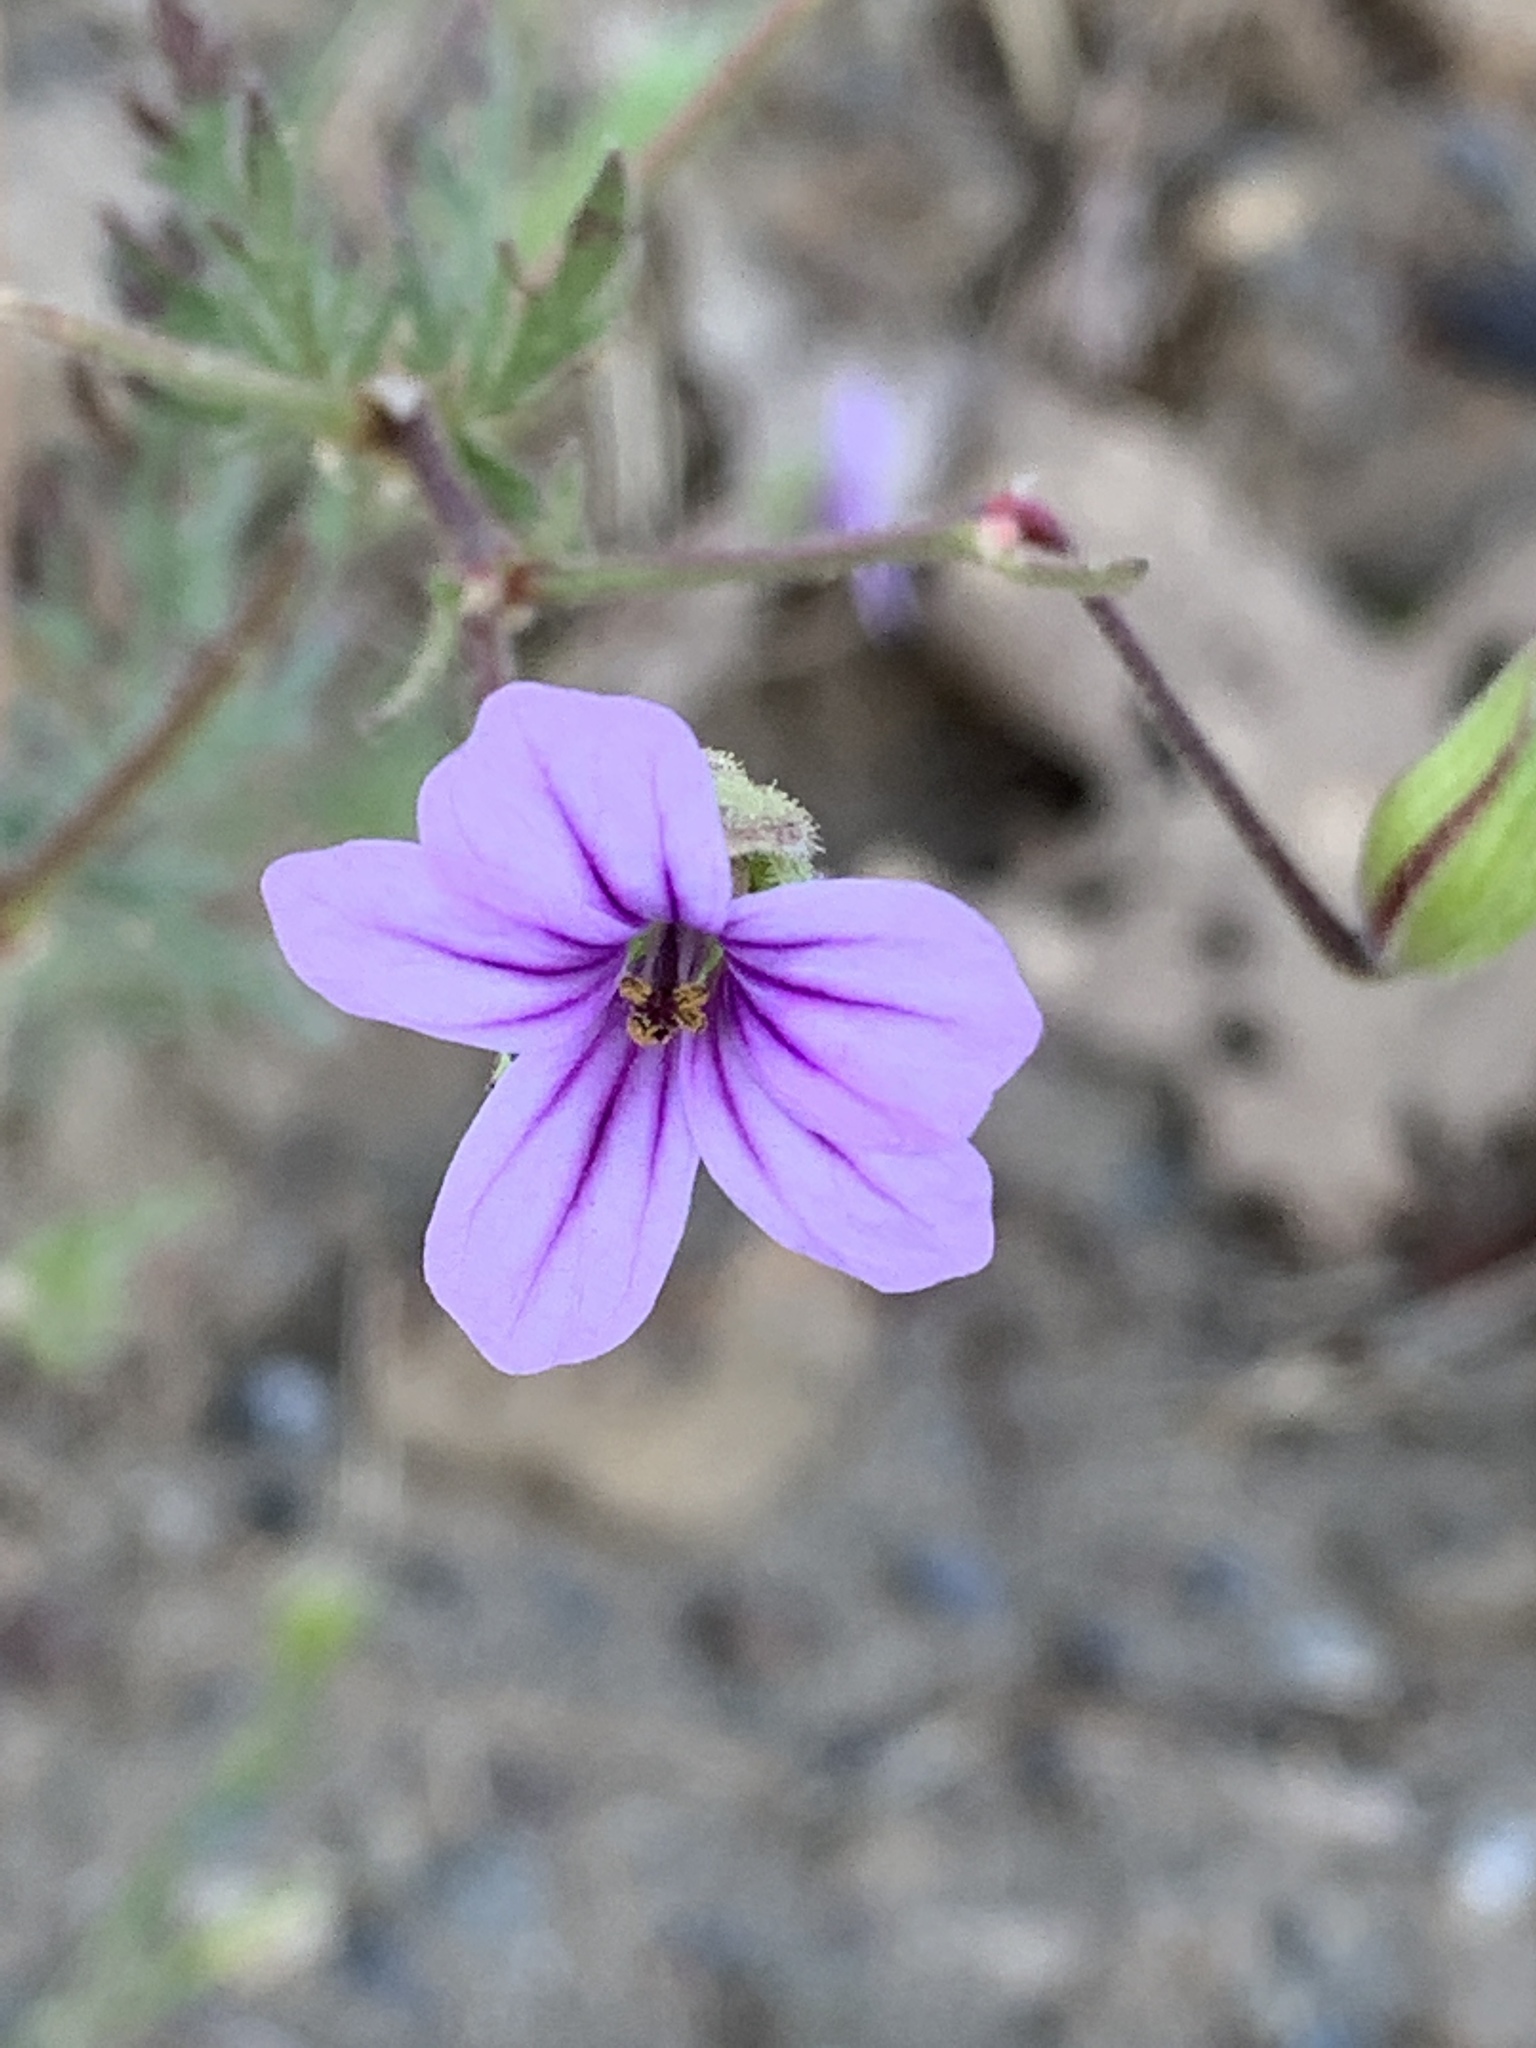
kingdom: Plantae
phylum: Tracheophyta
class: Magnoliopsida
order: Geraniales
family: Geraniaceae
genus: Erodium
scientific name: Erodium botrys
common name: Mediterranean stork's-bill
